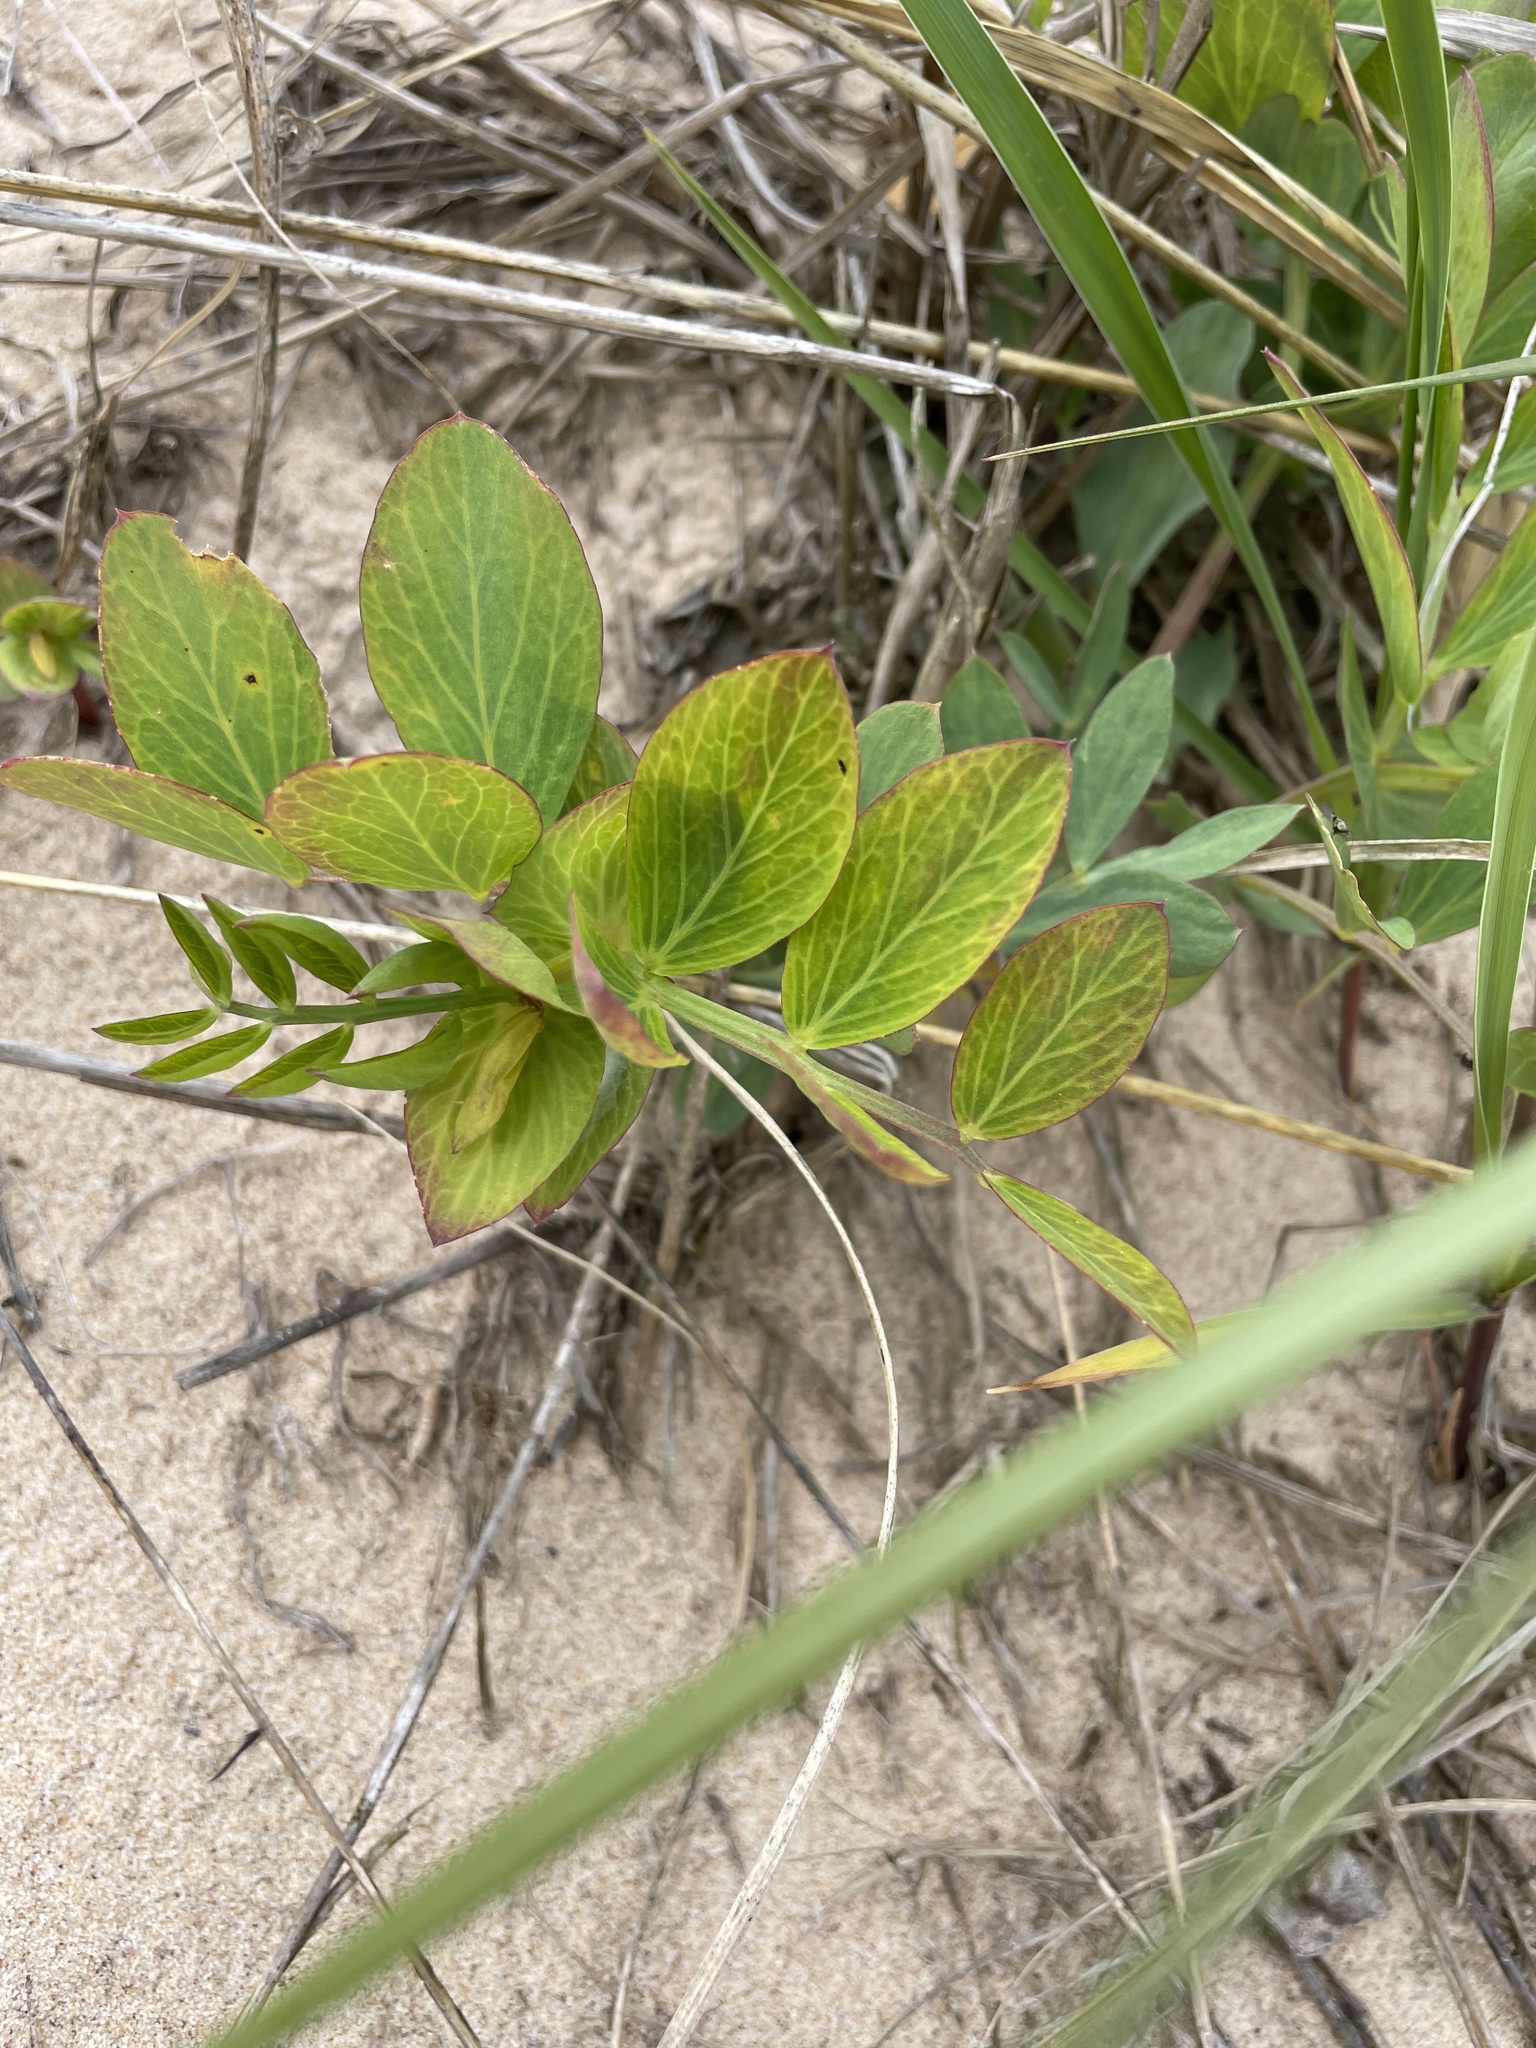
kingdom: Plantae
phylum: Tracheophyta
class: Magnoliopsida
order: Fabales
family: Fabaceae
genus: Lathyrus
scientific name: Lathyrus japonicus
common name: Sea pea
